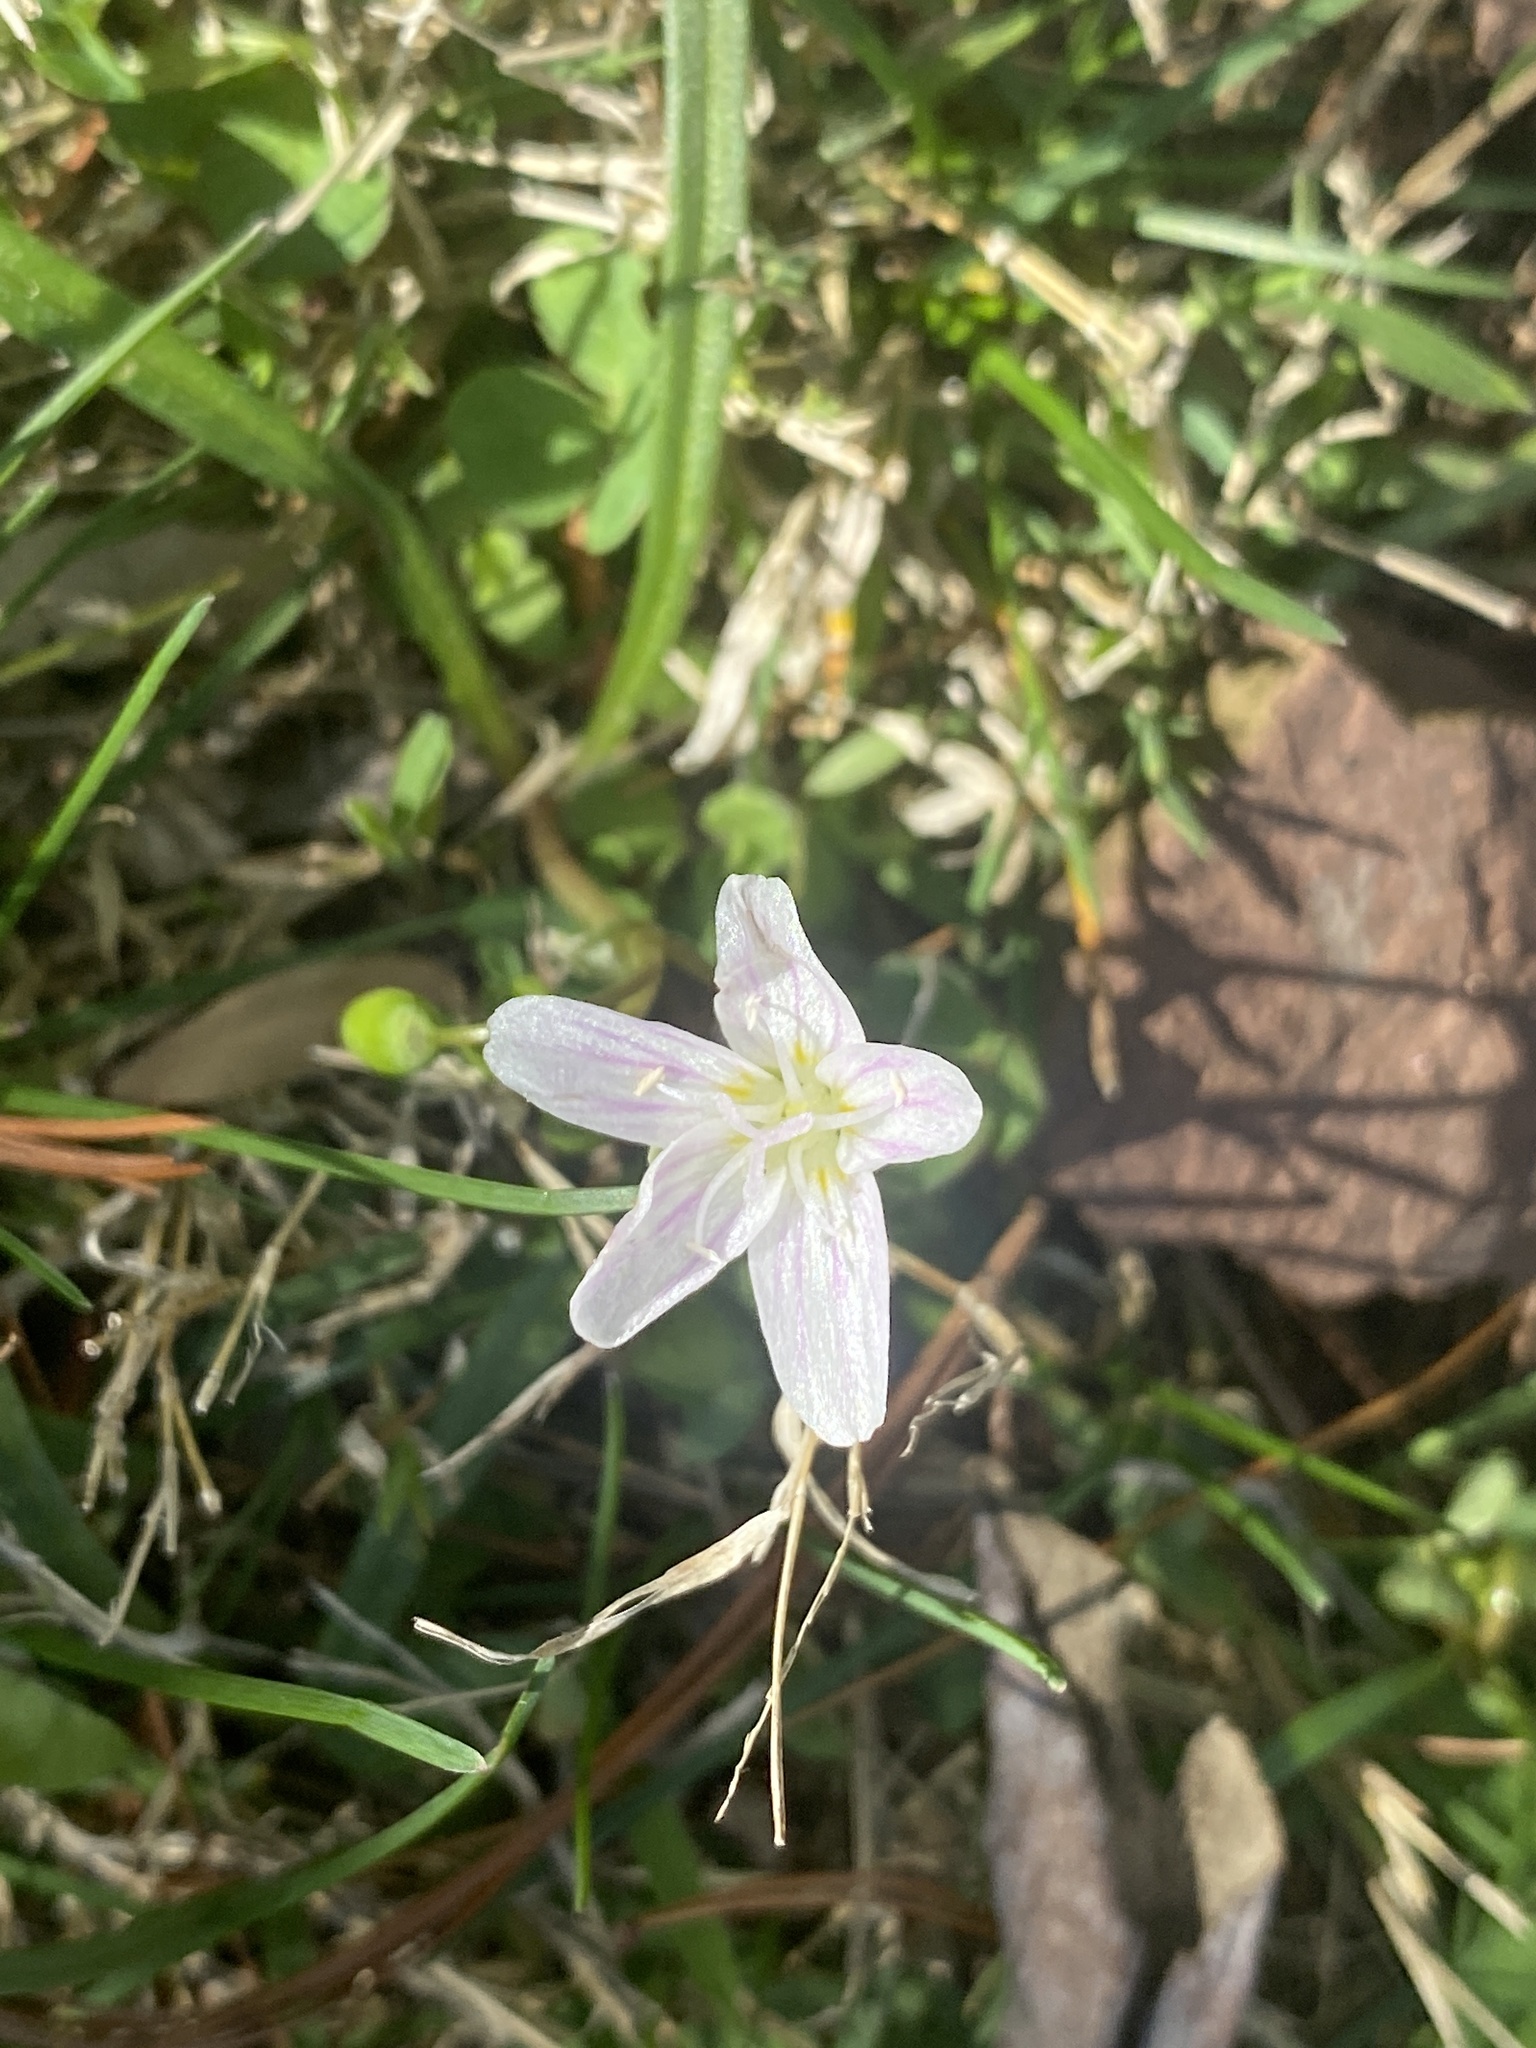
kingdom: Plantae
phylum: Tracheophyta
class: Magnoliopsida
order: Caryophyllales
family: Montiaceae
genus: Claytonia
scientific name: Claytonia virginica
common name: Virginia springbeauty
